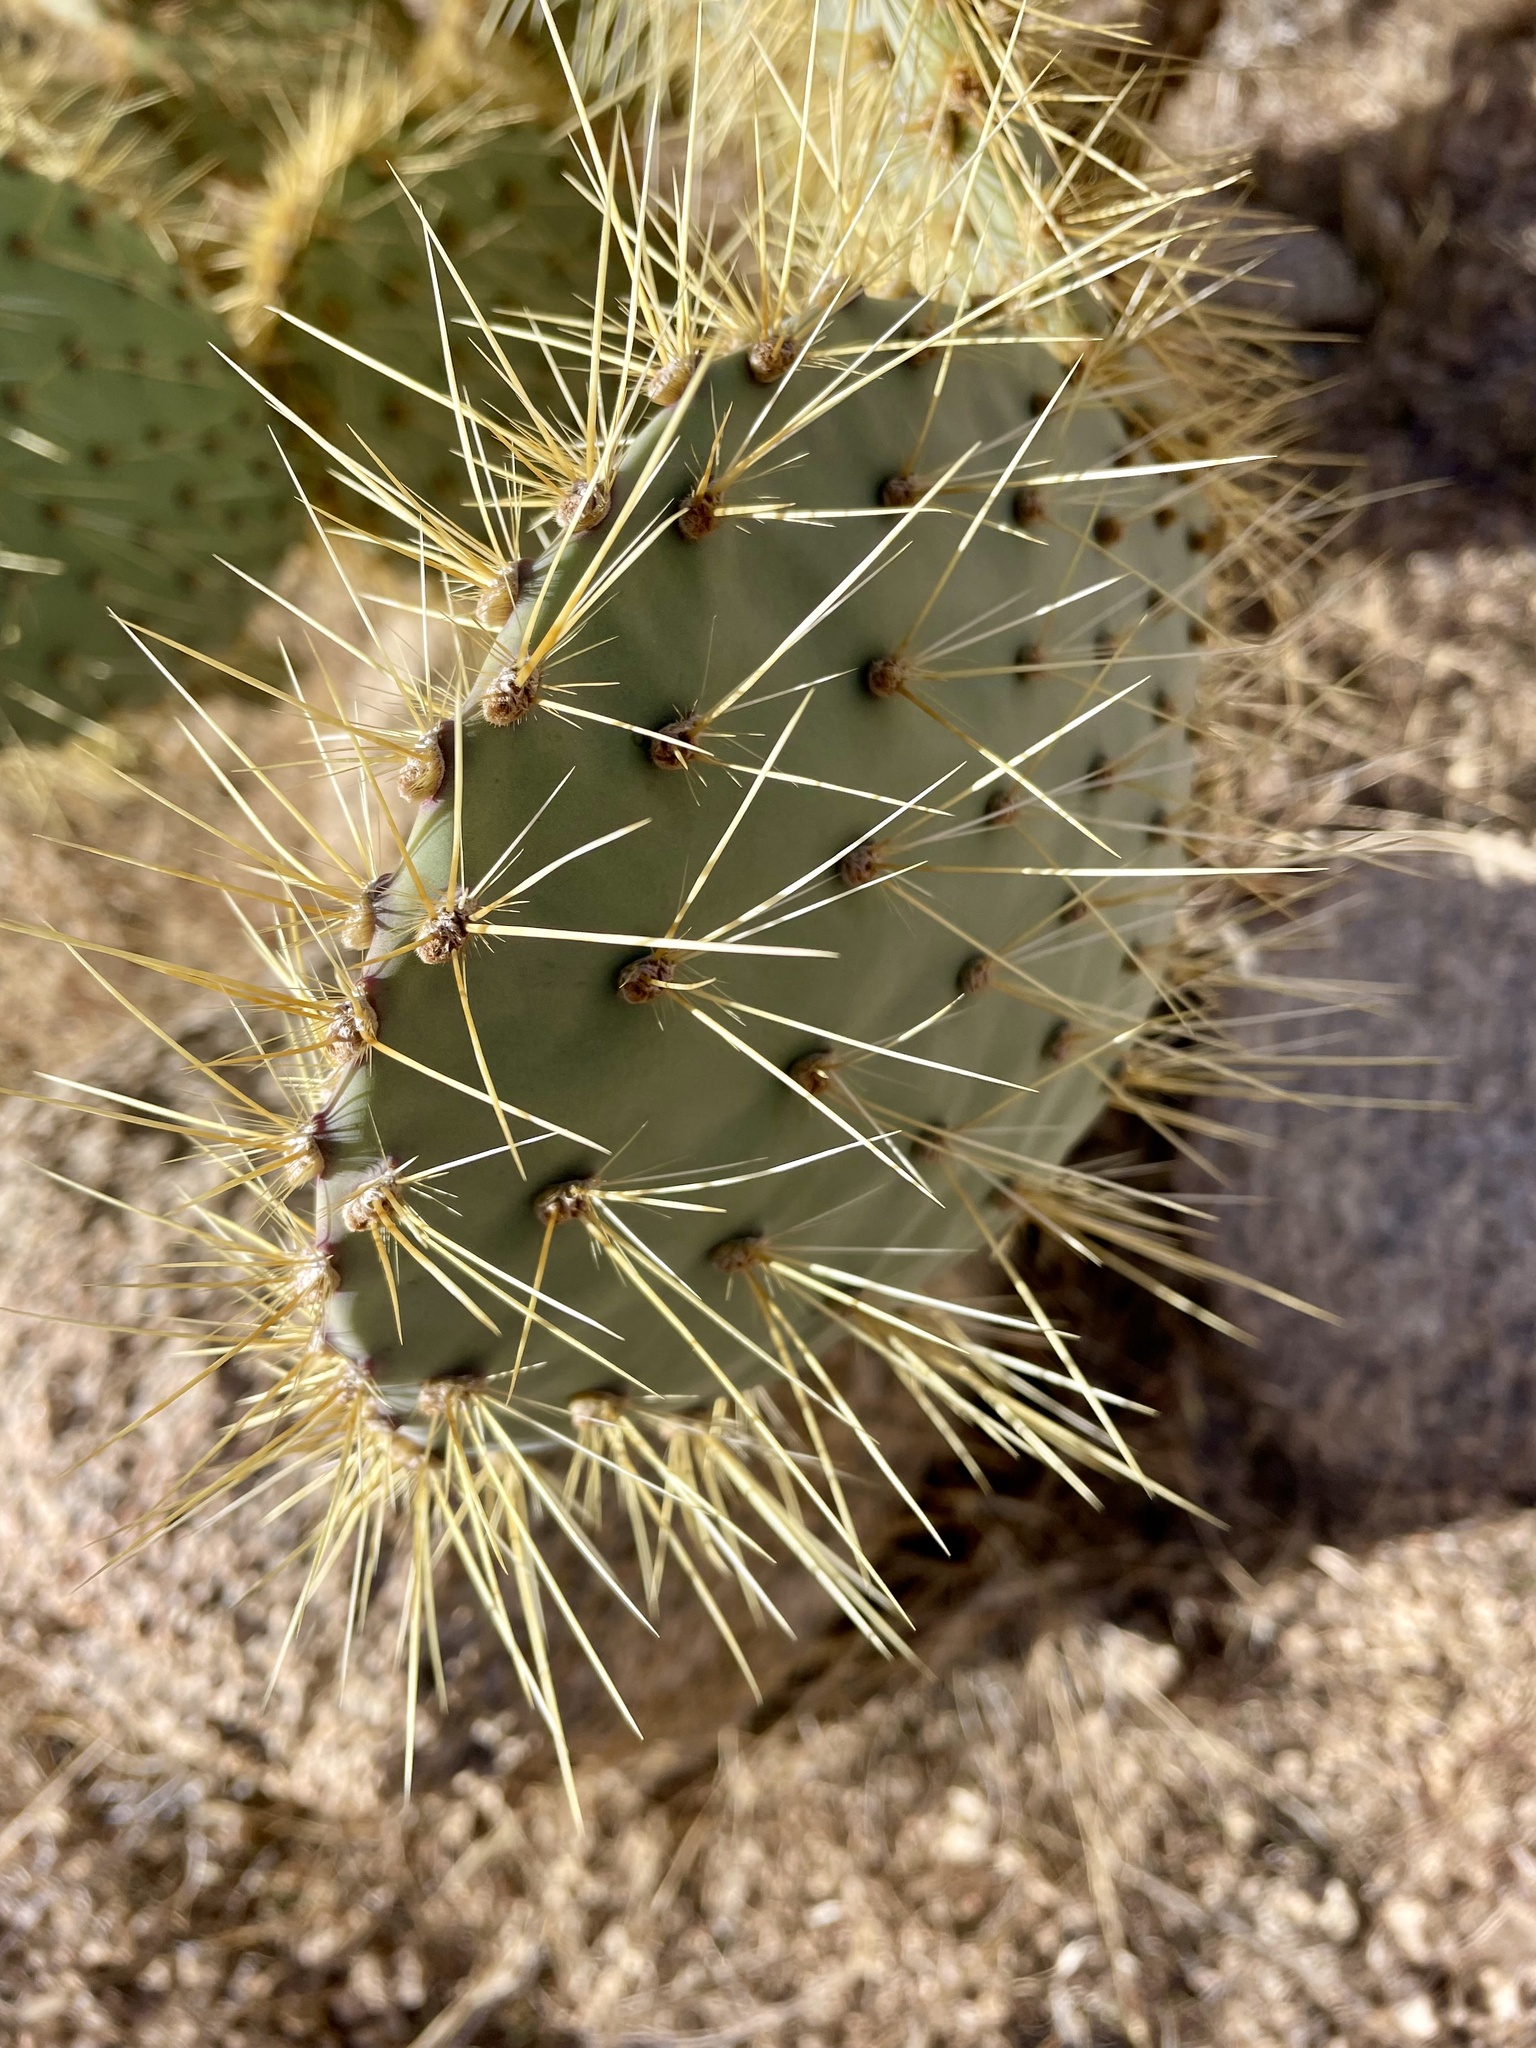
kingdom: Plantae
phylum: Tracheophyta
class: Magnoliopsida
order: Caryophyllales
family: Cactaceae
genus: Opuntia
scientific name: Opuntia chlorotica
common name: Dollar-joint prickly-pear
